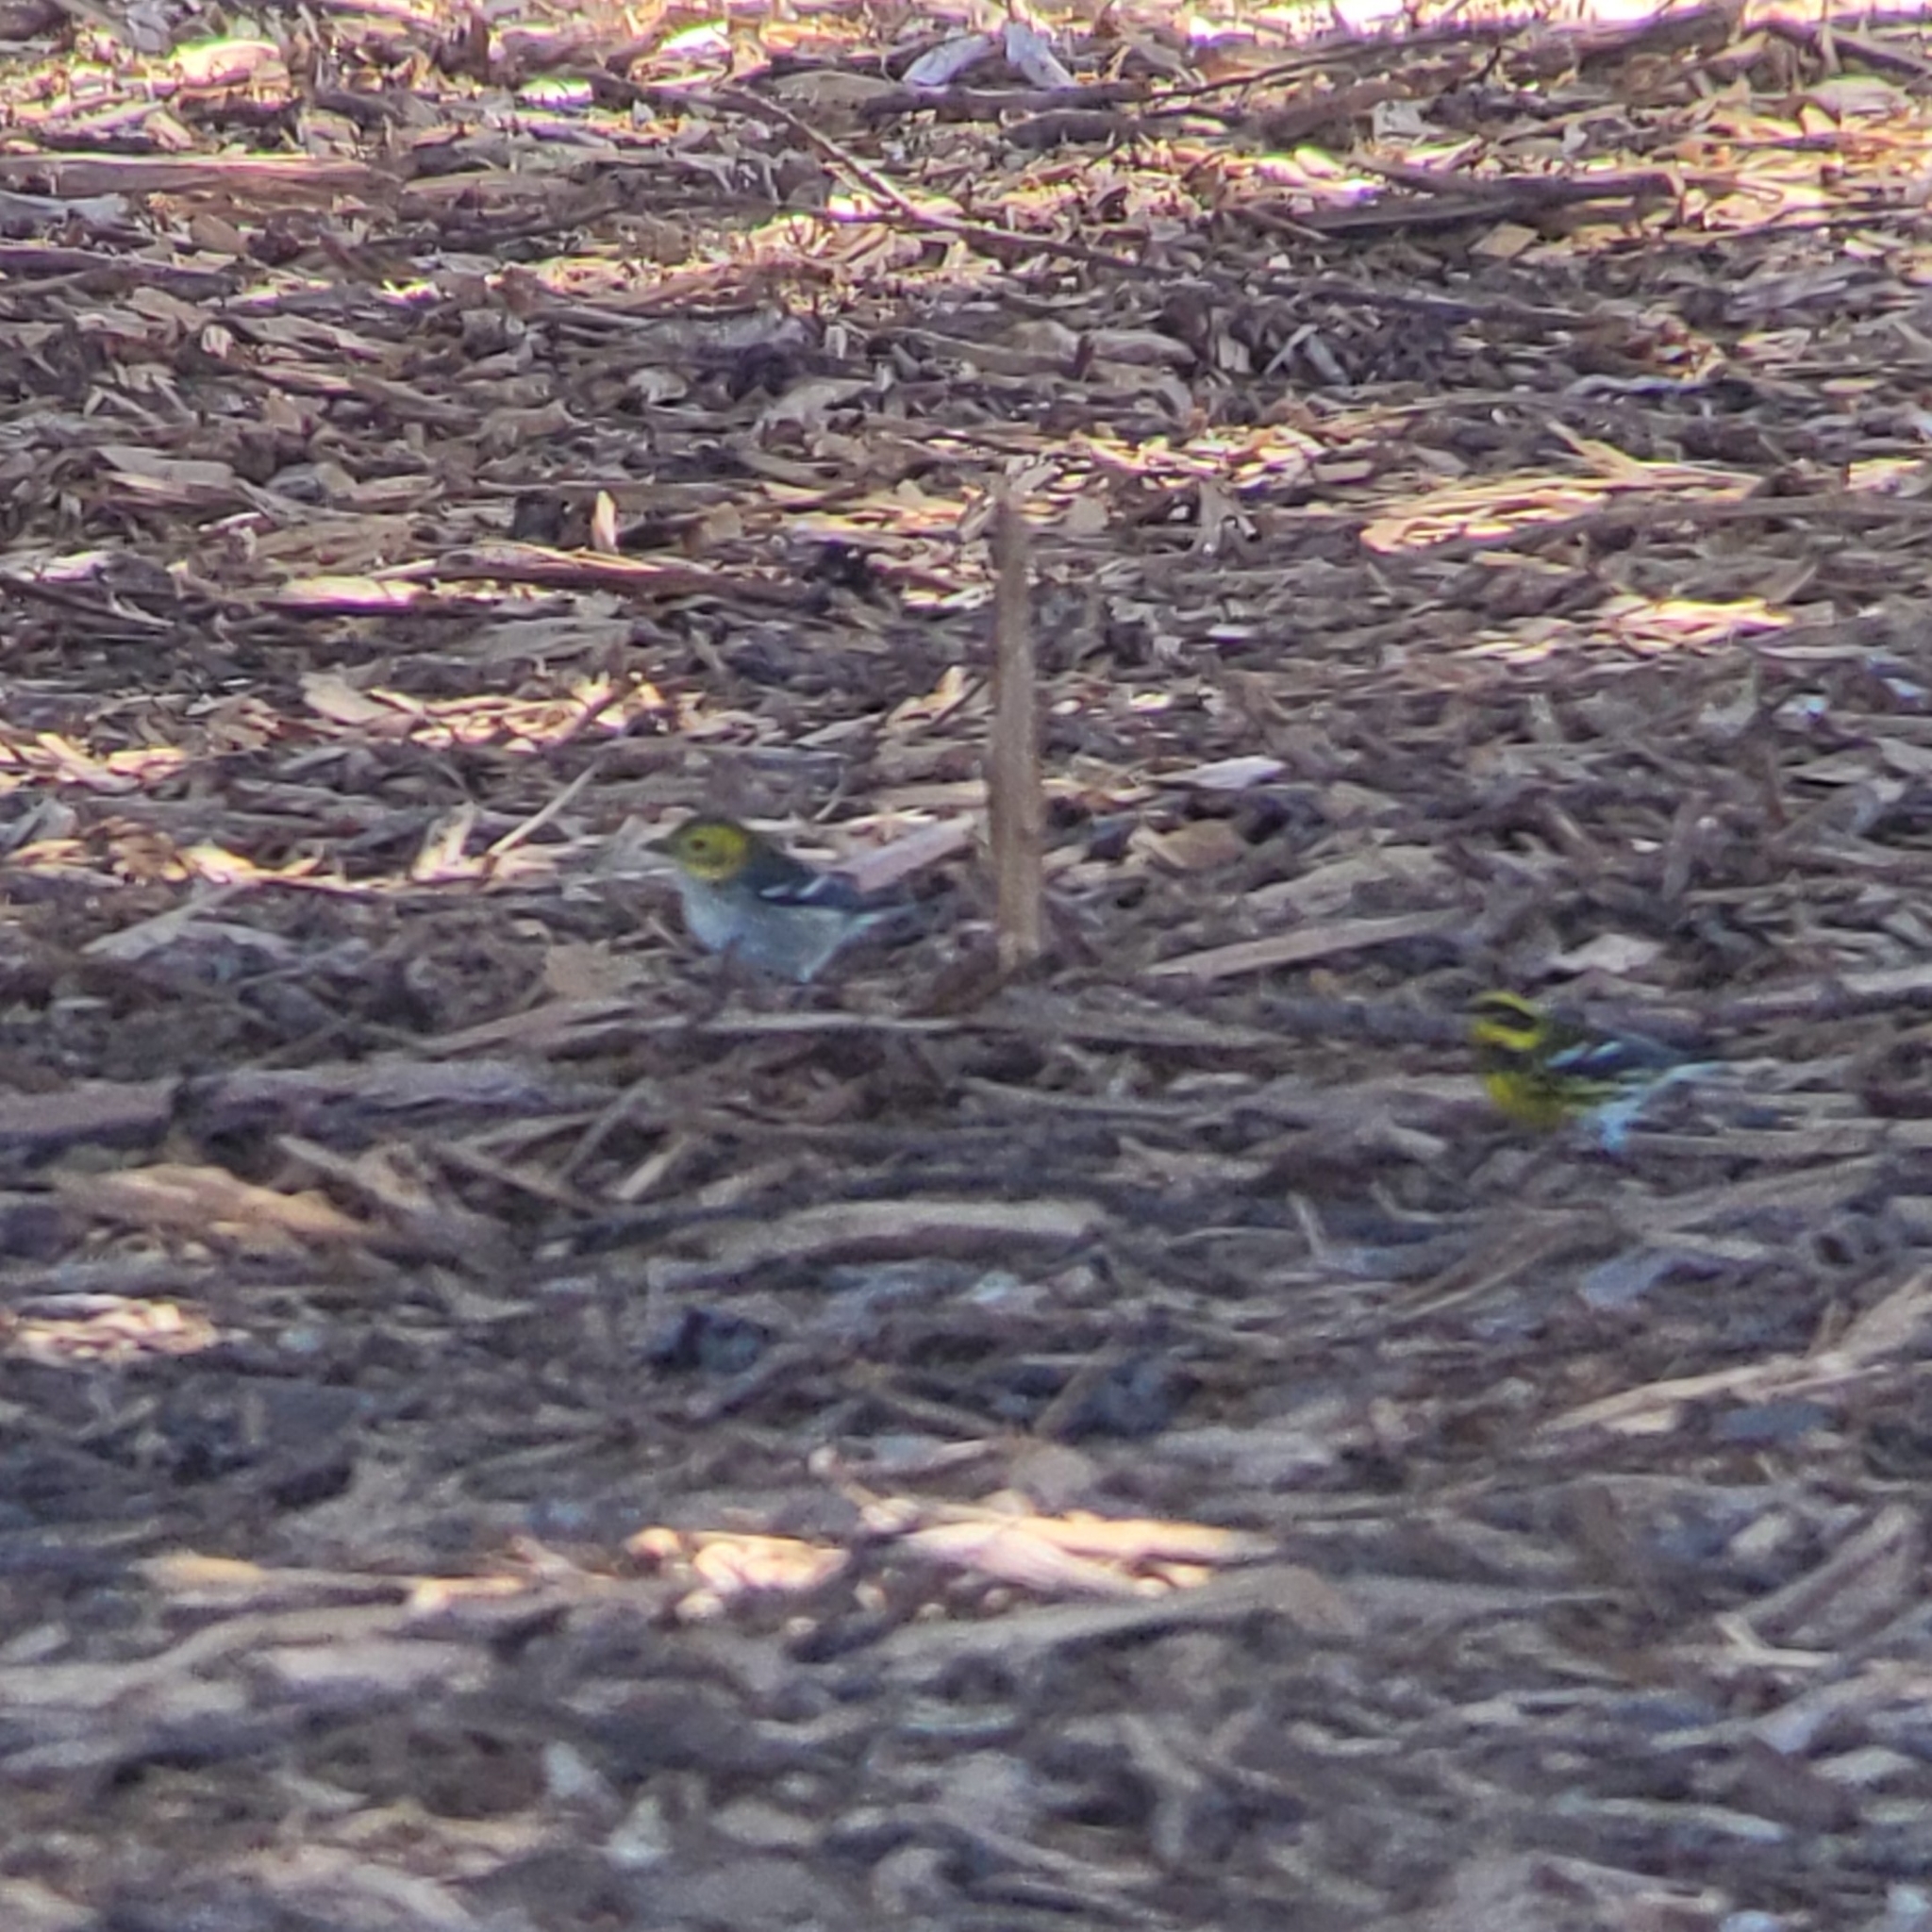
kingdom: Animalia
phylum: Chordata
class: Aves
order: Passeriformes
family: Parulidae
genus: Setophaga
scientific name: Setophaga occidentalis
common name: Hermit warbler
